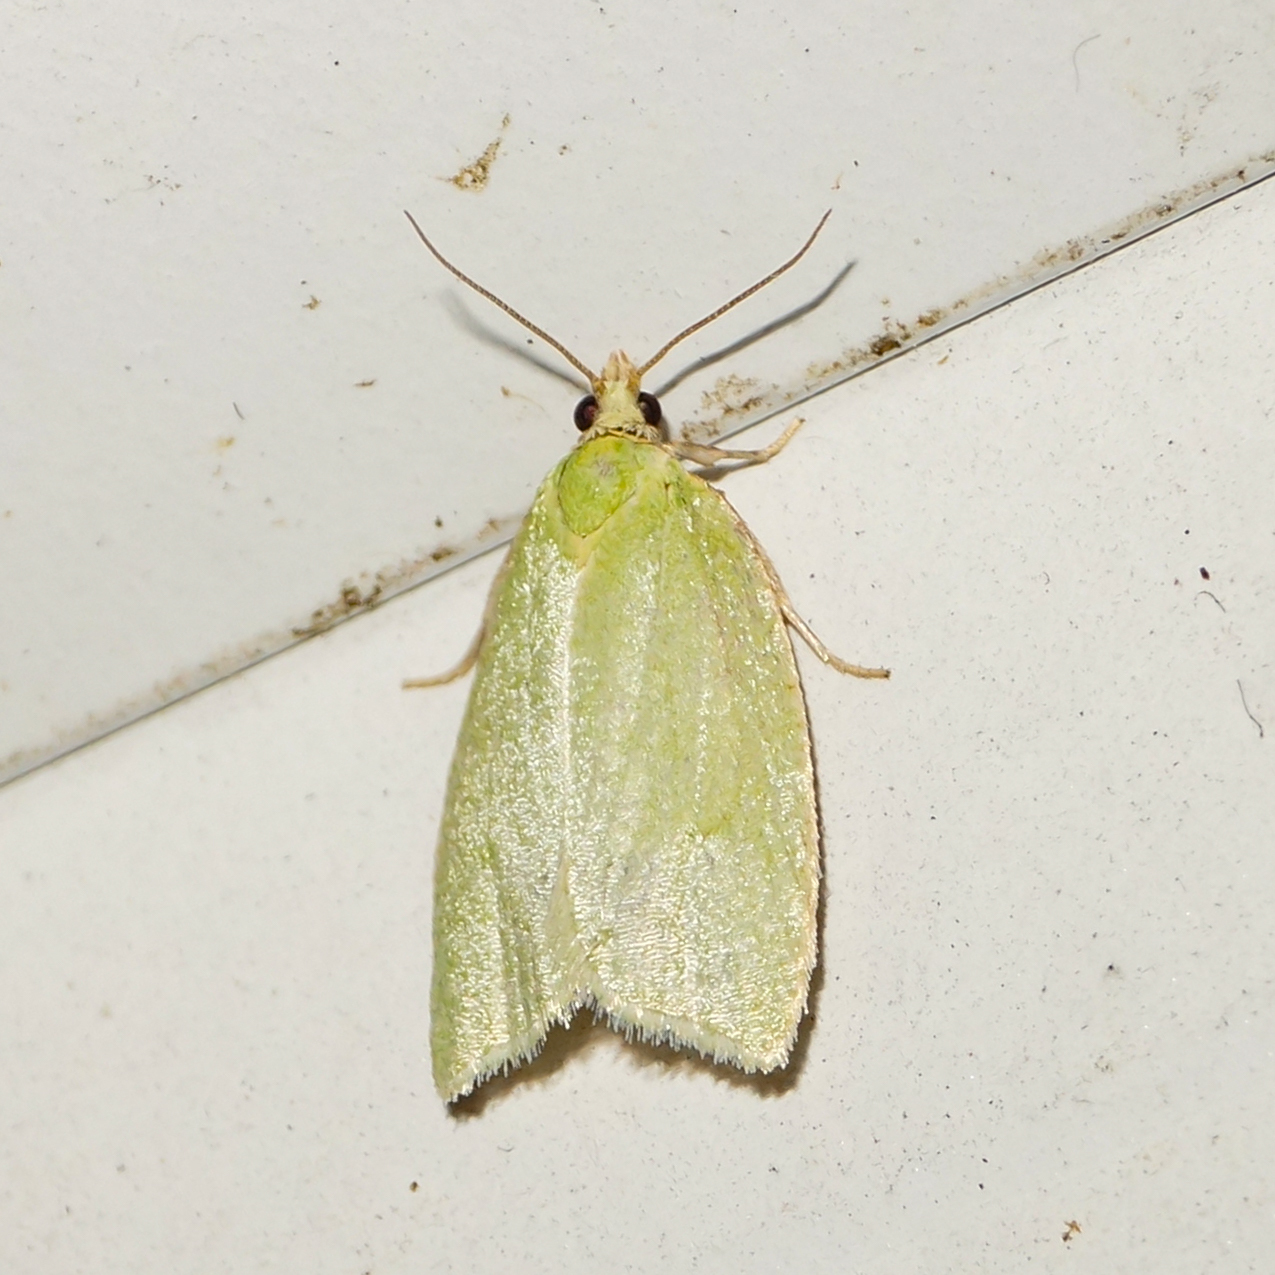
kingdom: Animalia
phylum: Arthropoda
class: Insecta
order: Lepidoptera
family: Tortricidae
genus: Tortrix
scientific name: Tortrix viridana
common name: Green oak tortrix
